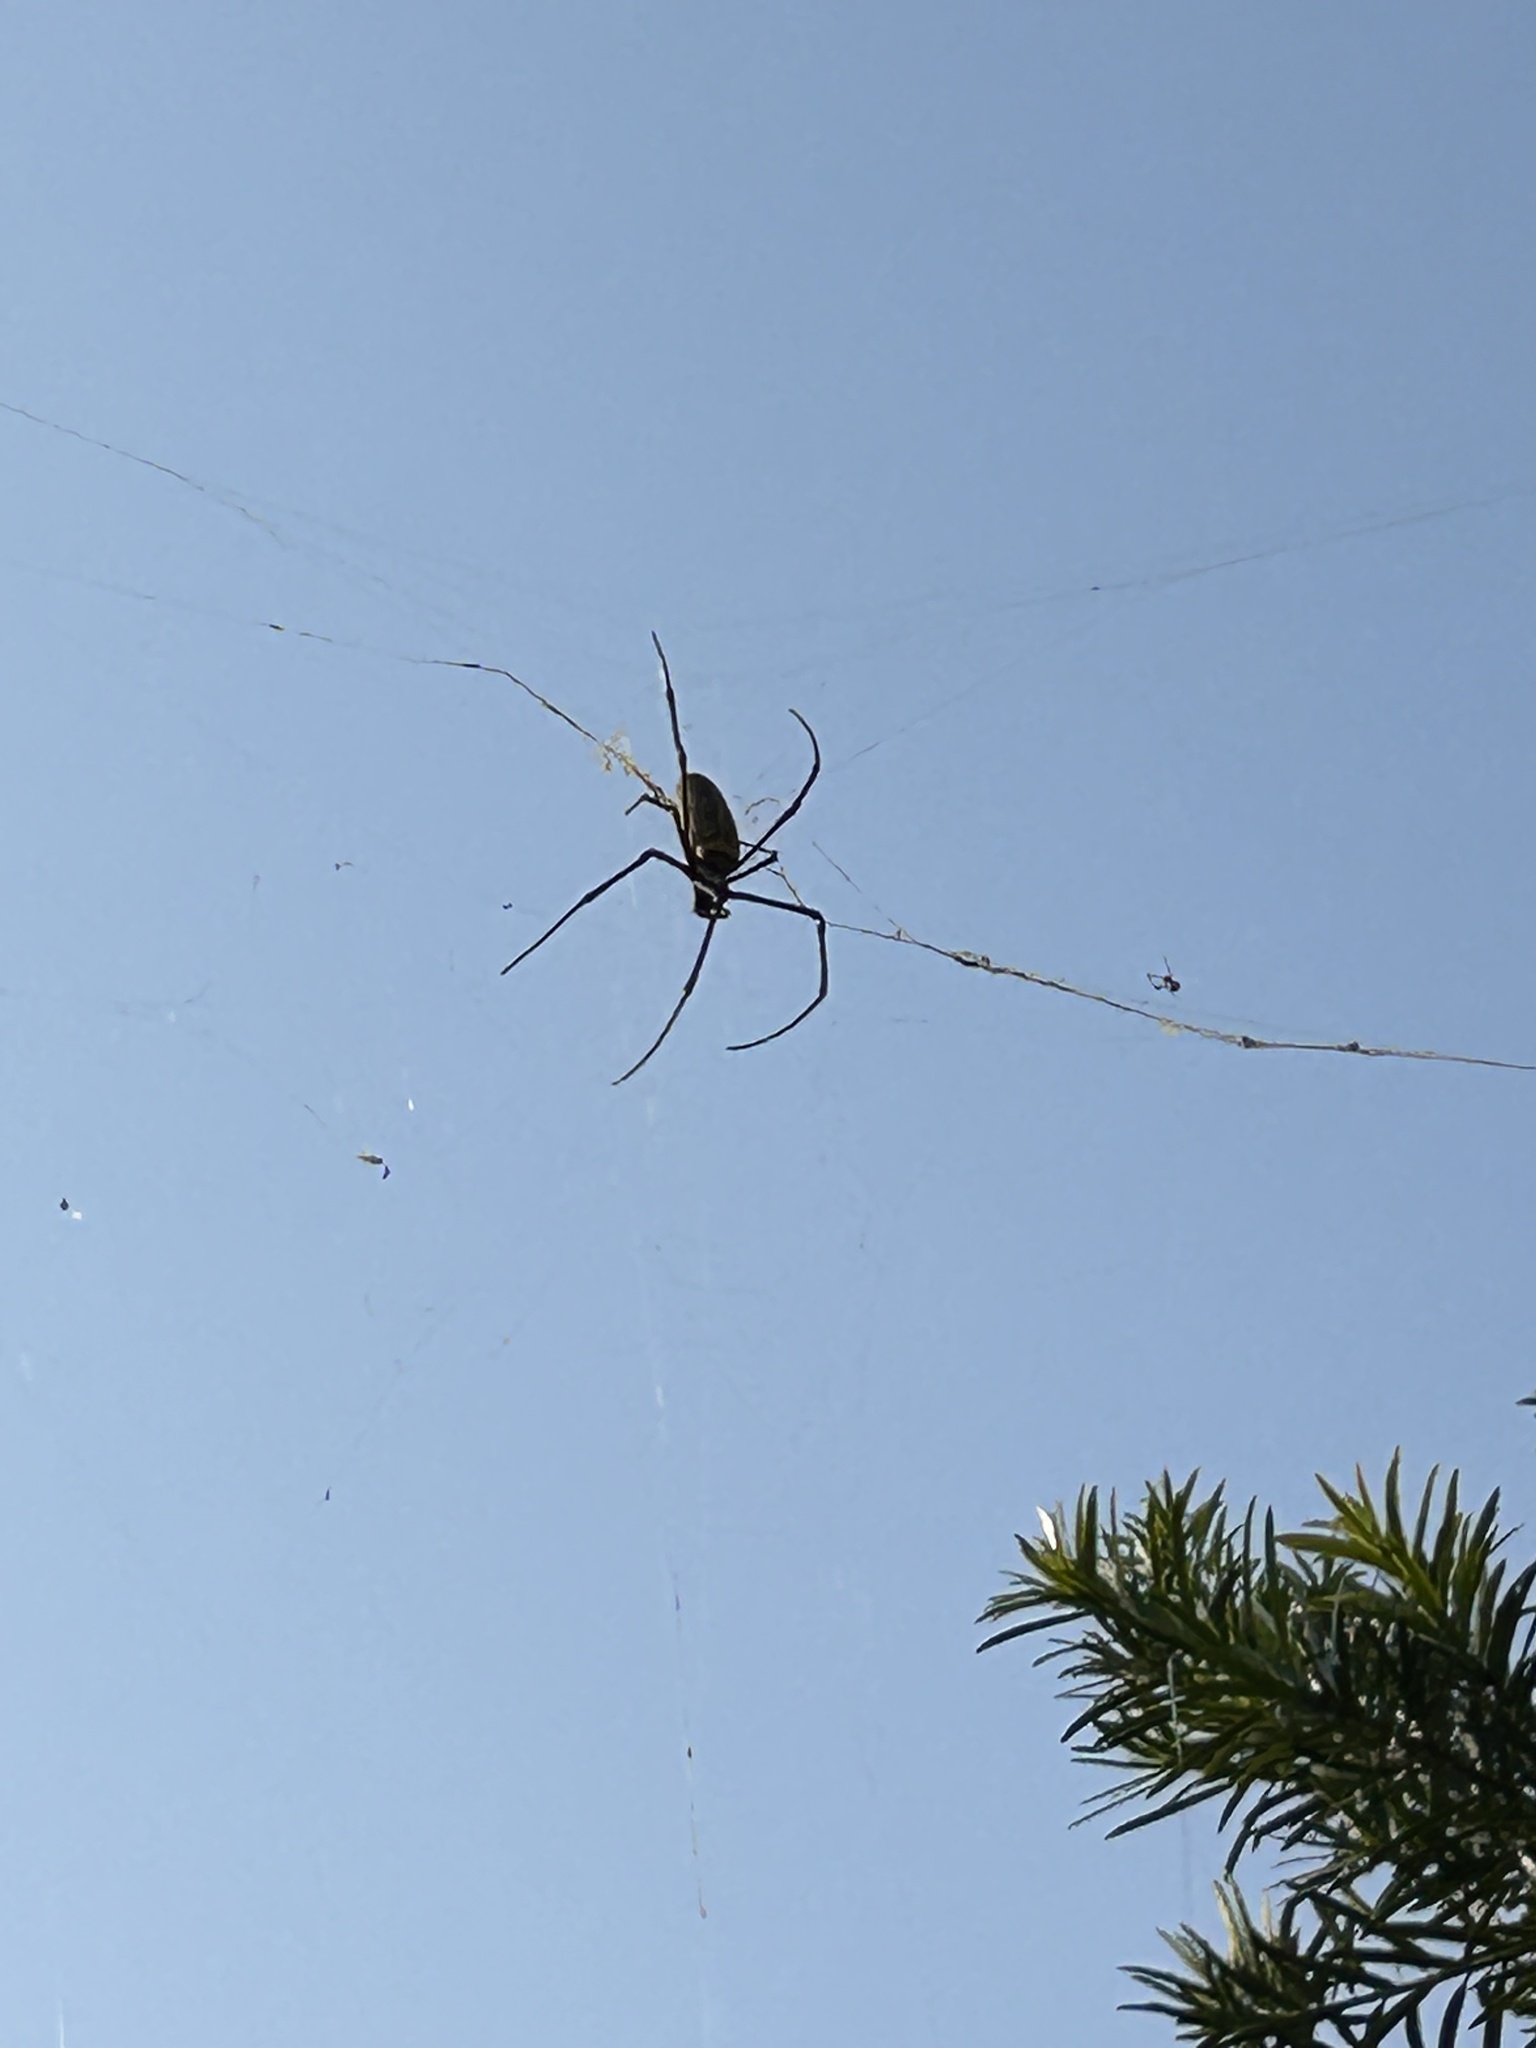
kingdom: Animalia
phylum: Arthropoda
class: Arachnida
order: Araneae
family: Araneidae
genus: Nephila
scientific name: Nephila pilipes
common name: Giant golden orb weaver
